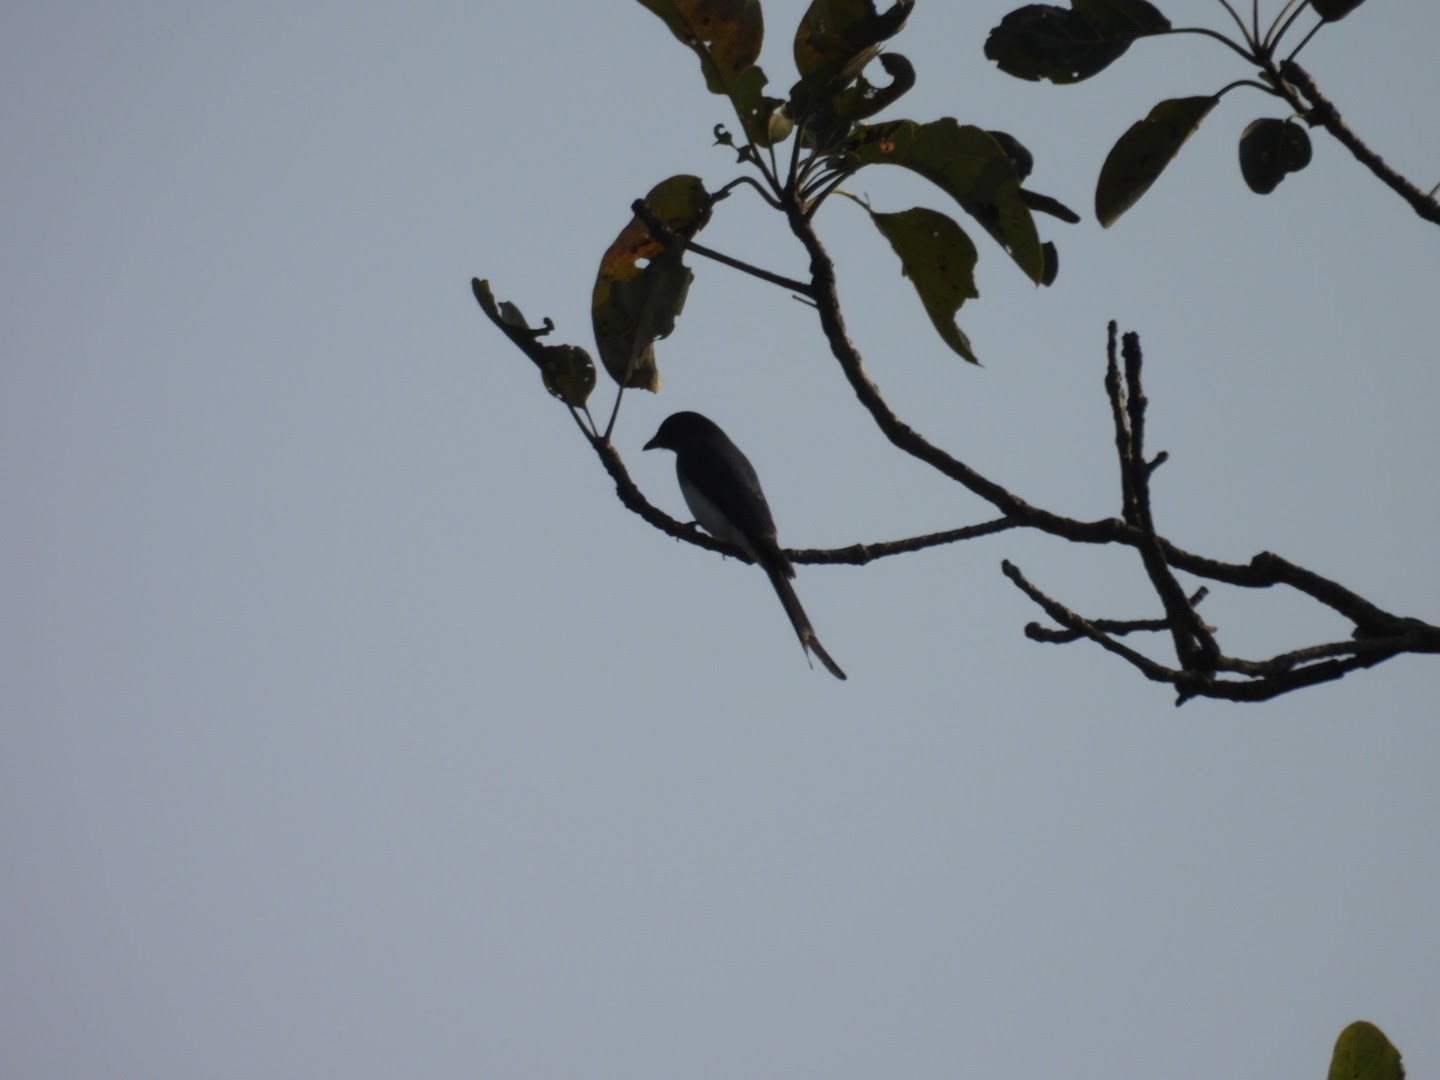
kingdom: Animalia
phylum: Chordata
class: Aves
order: Passeriformes
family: Dicruridae
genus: Dicrurus
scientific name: Dicrurus caerulescens
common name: White-bellied drongo
